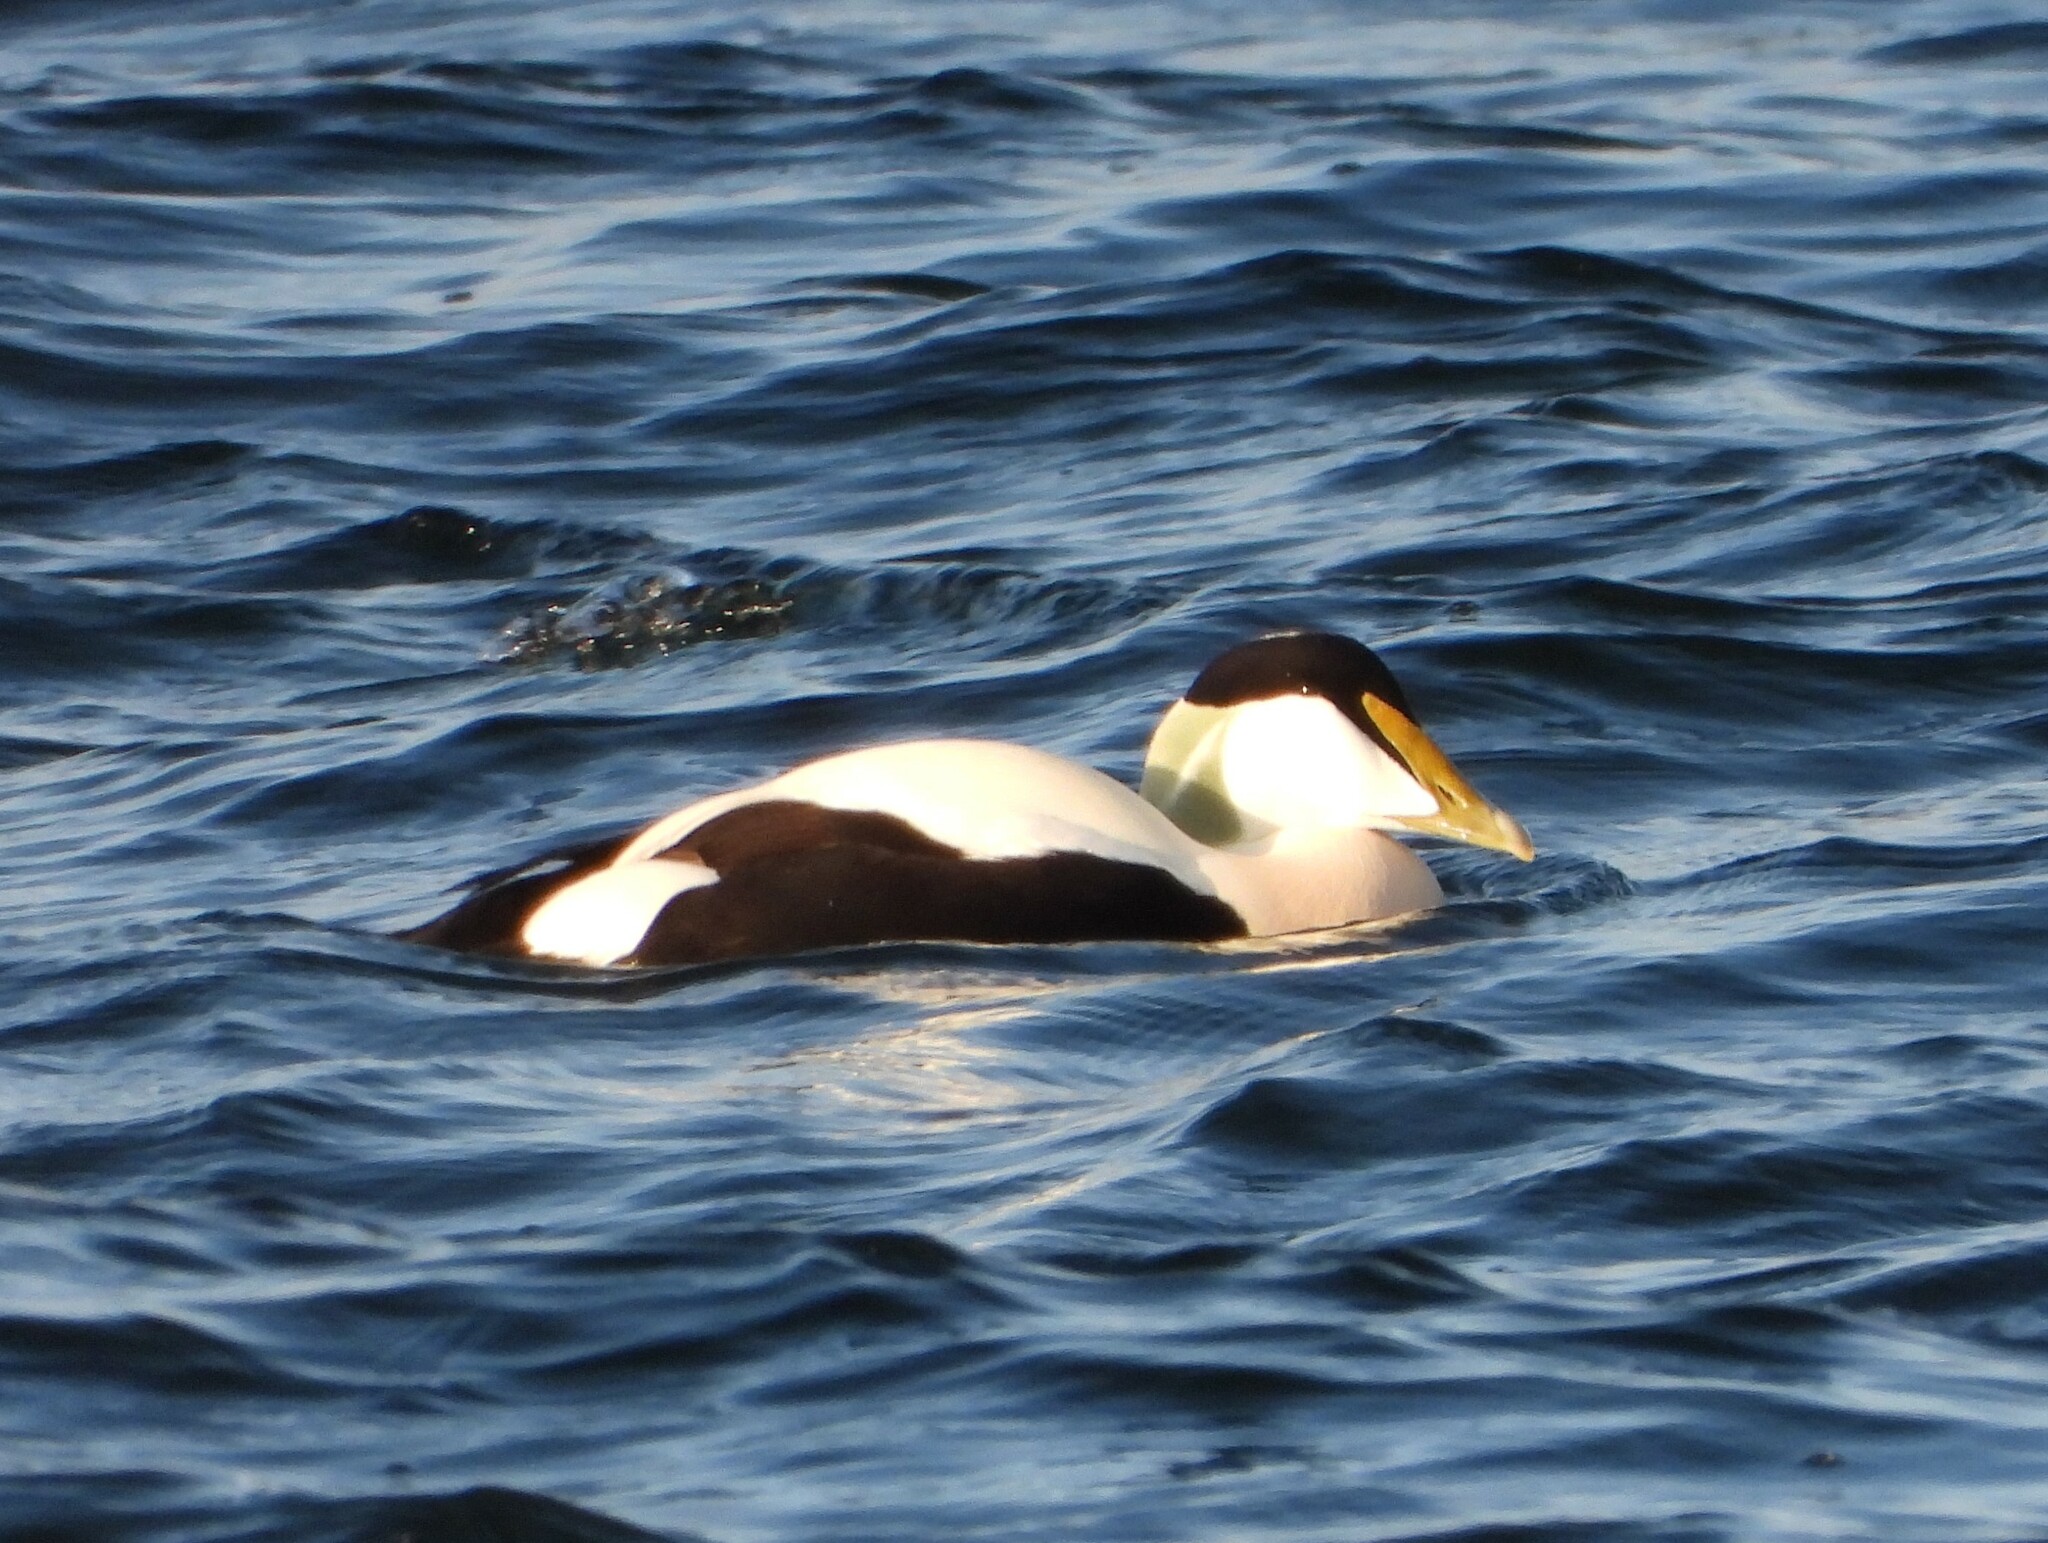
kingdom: Animalia
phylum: Chordata
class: Aves
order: Anseriformes
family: Anatidae
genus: Somateria
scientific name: Somateria mollissima
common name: Common eider
